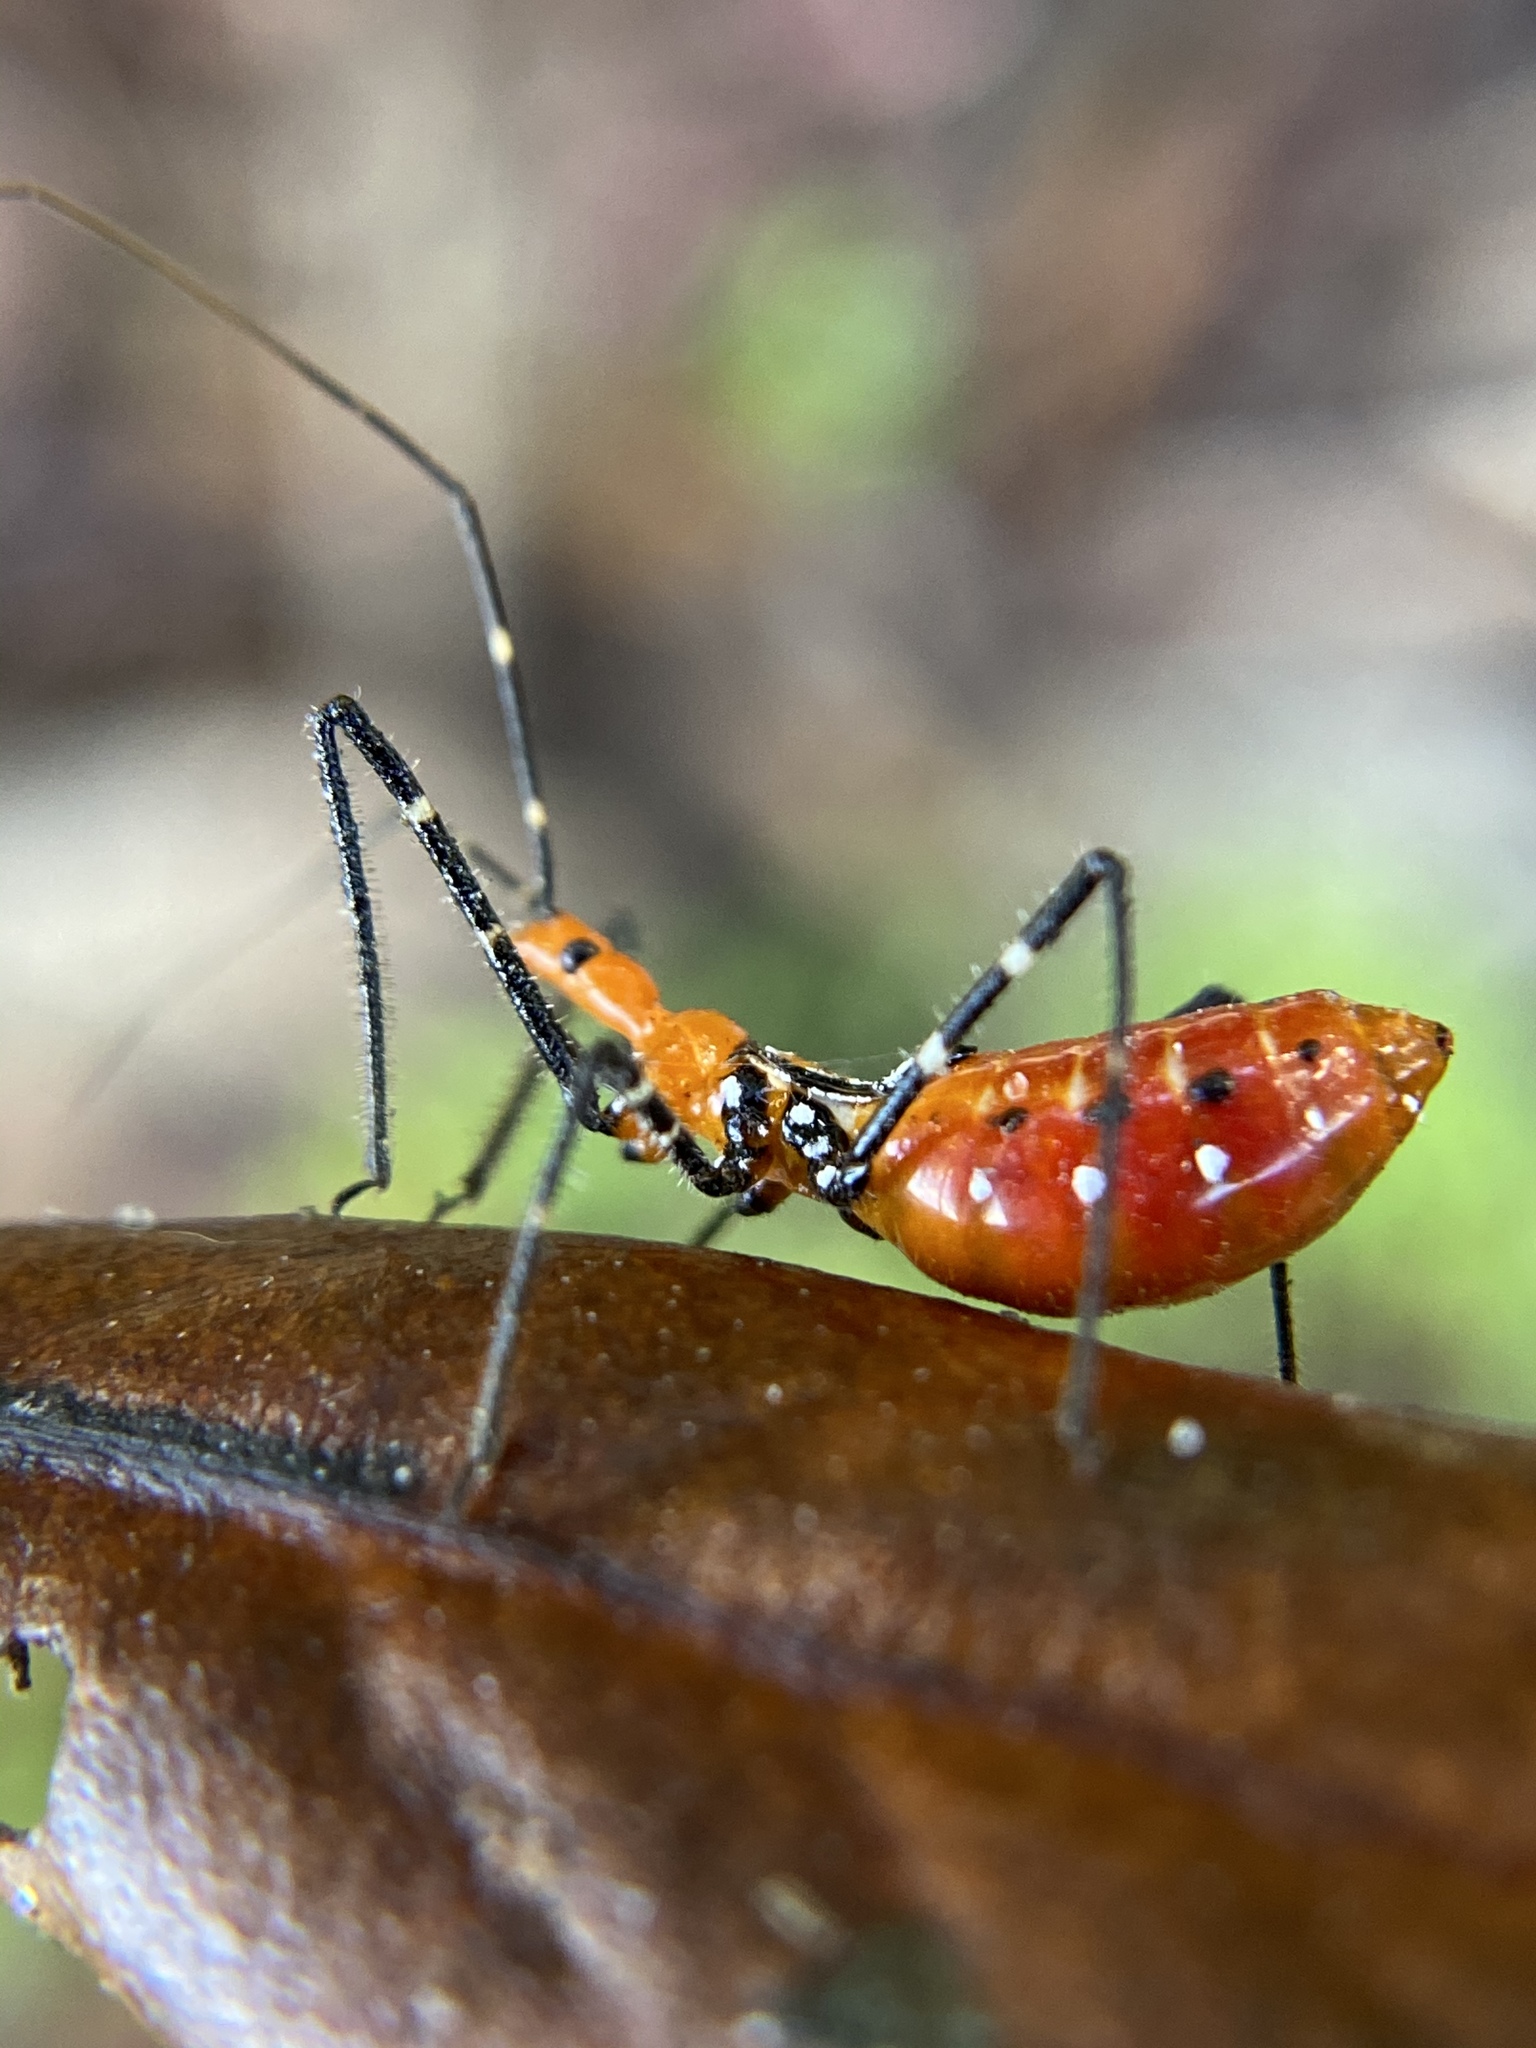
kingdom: Animalia
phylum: Arthropoda
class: Insecta
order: Hemiptera
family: Reduviidae
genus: Zelus
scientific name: Zelus longipes
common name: Milkweed assassin bug
